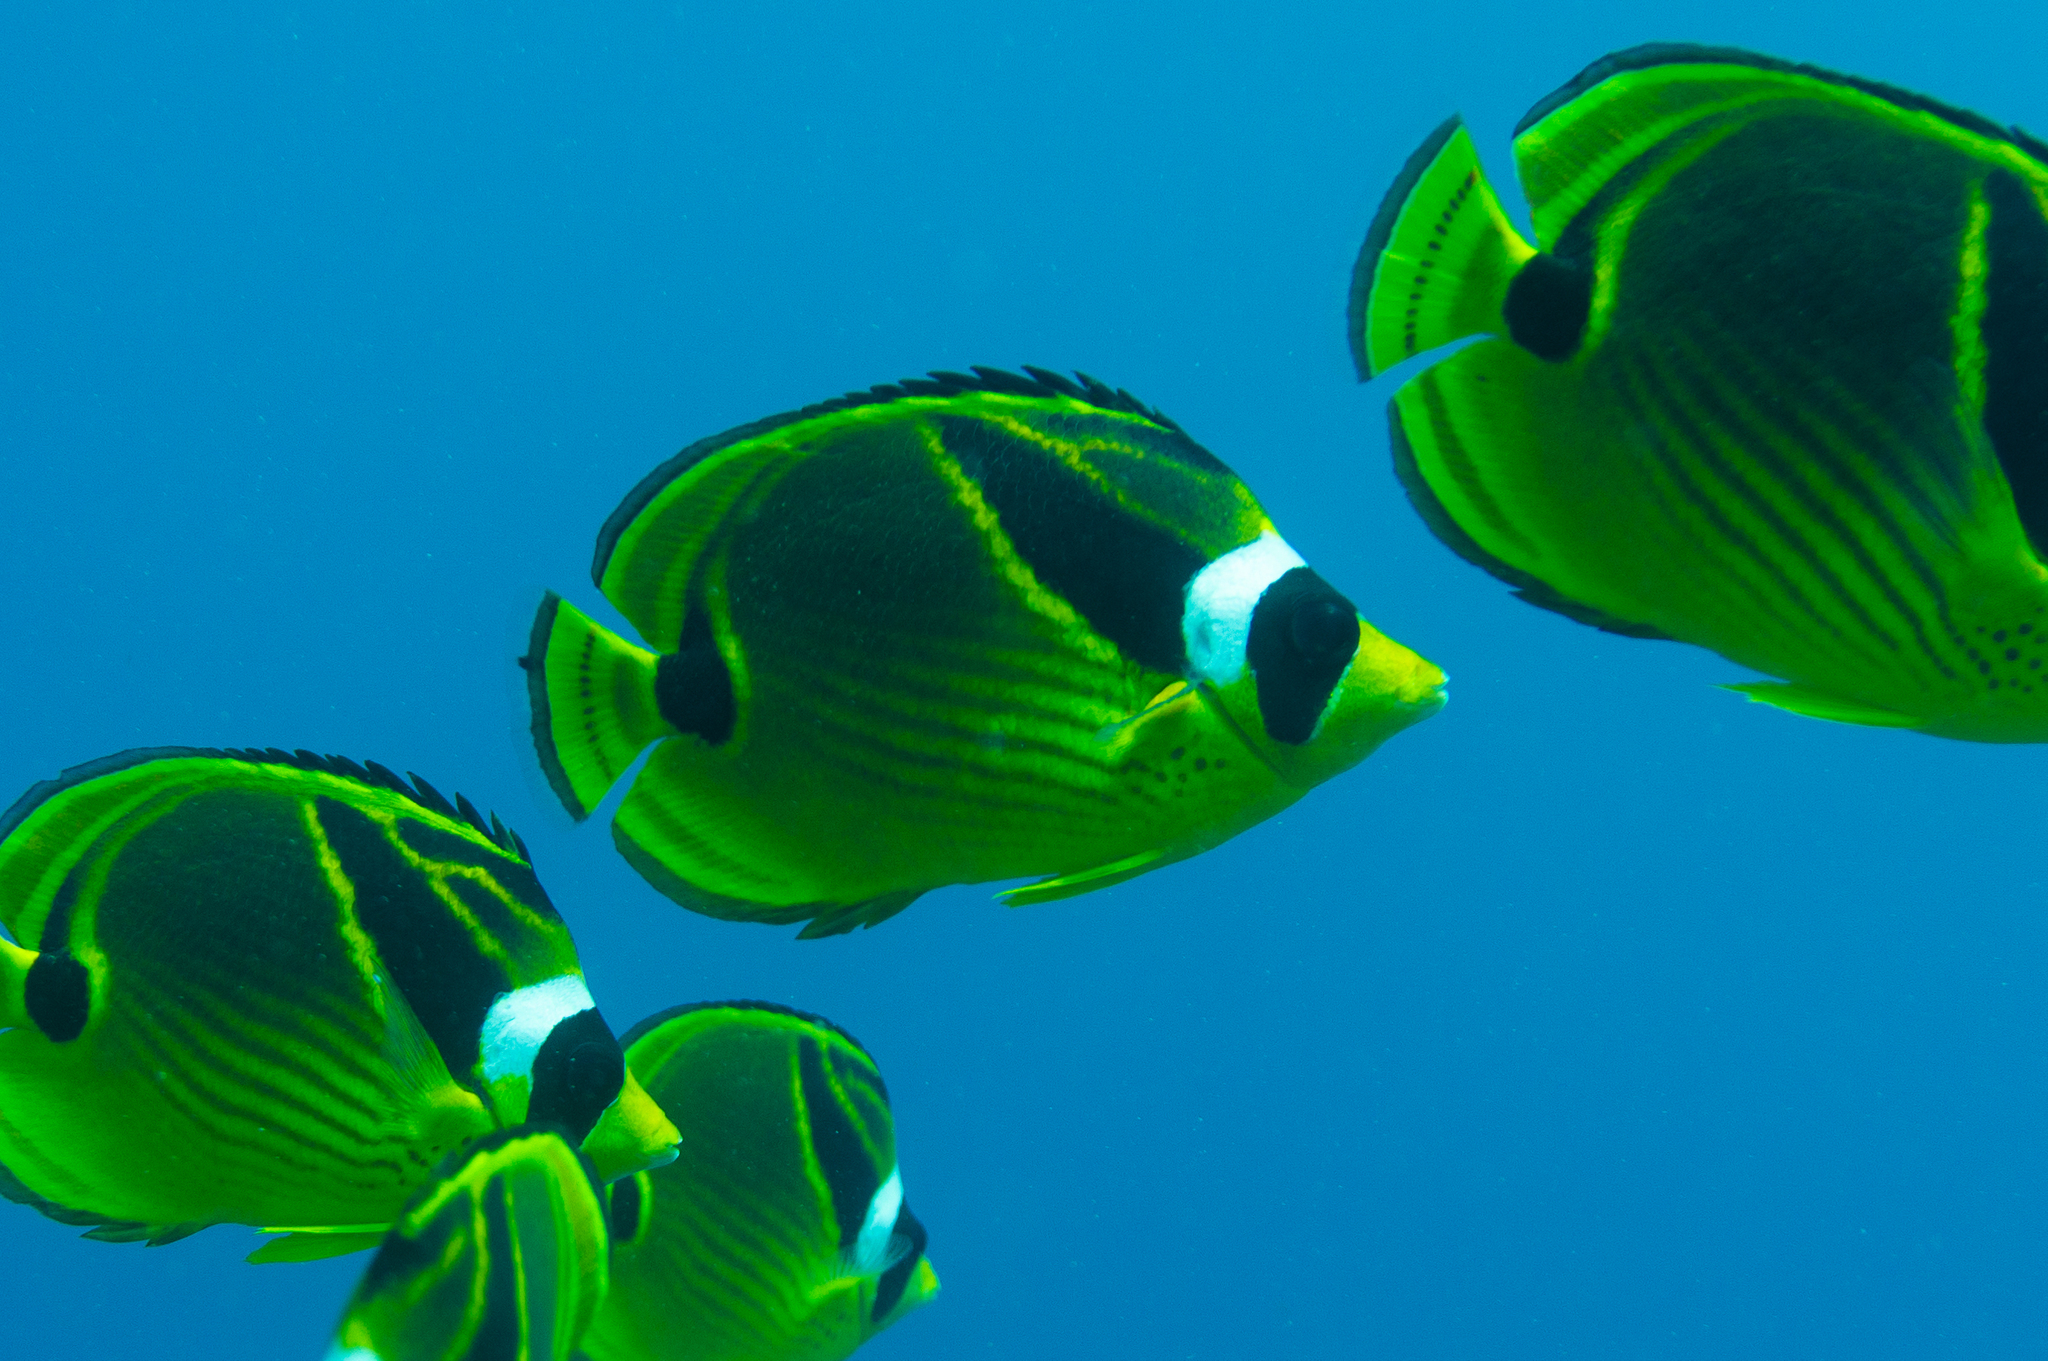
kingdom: Animalia
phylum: Chordata
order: Perciformes
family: Chaetodontidae
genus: Chaetodon
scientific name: Chaetodon lunula
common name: Raccoon butterflyfish
